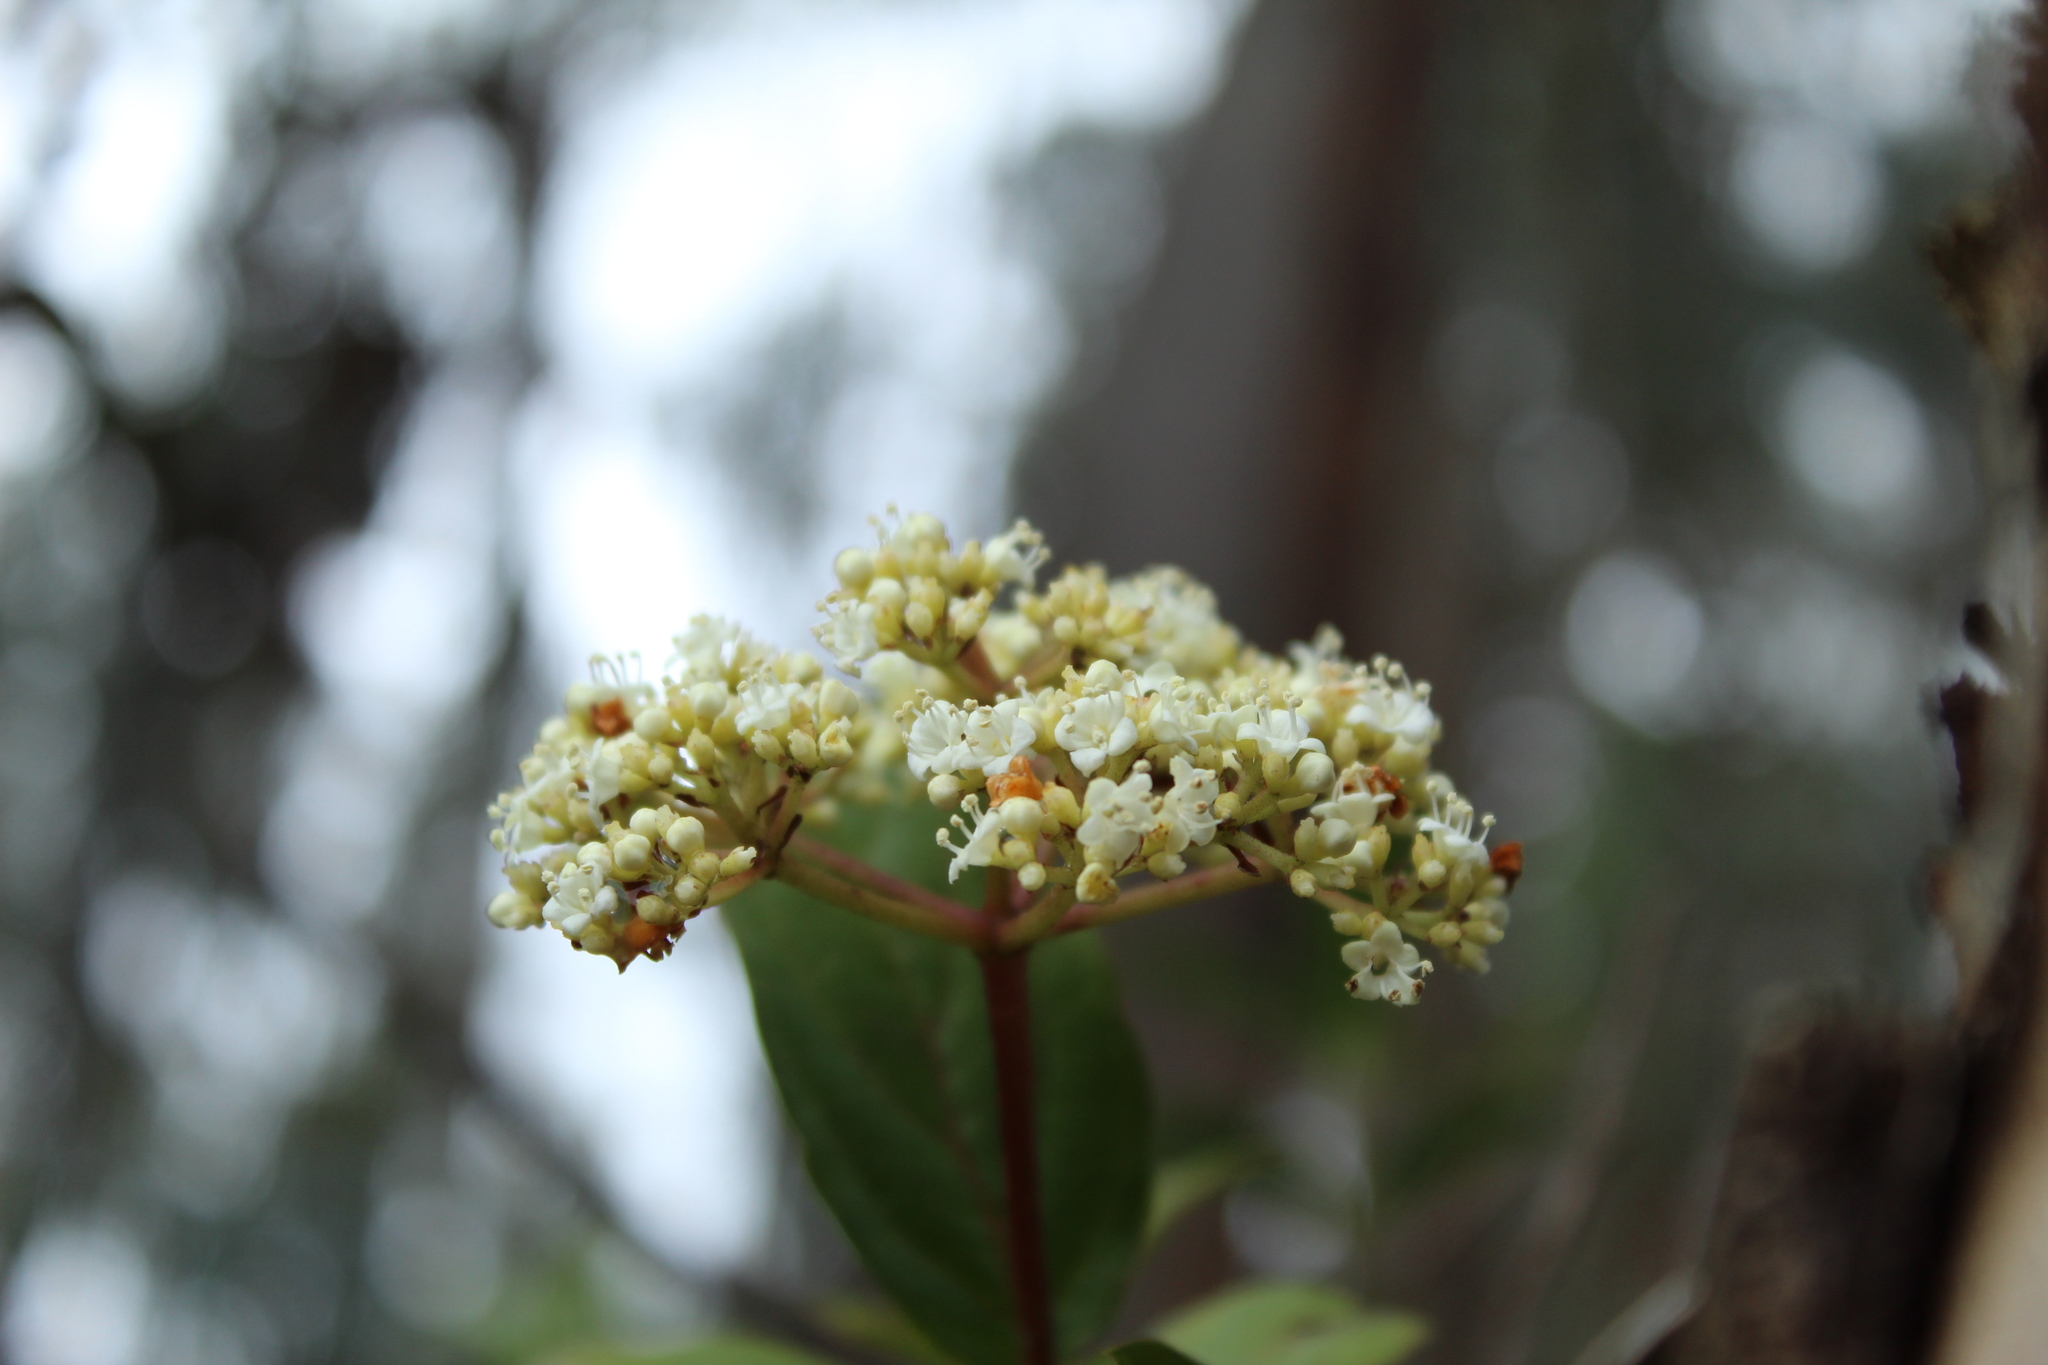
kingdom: Plantae
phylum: Tracheophyta
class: Magnoliopsida
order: Dipsacales
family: Viburnaceae
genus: Viburnum
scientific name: Viburnum triphyllum
